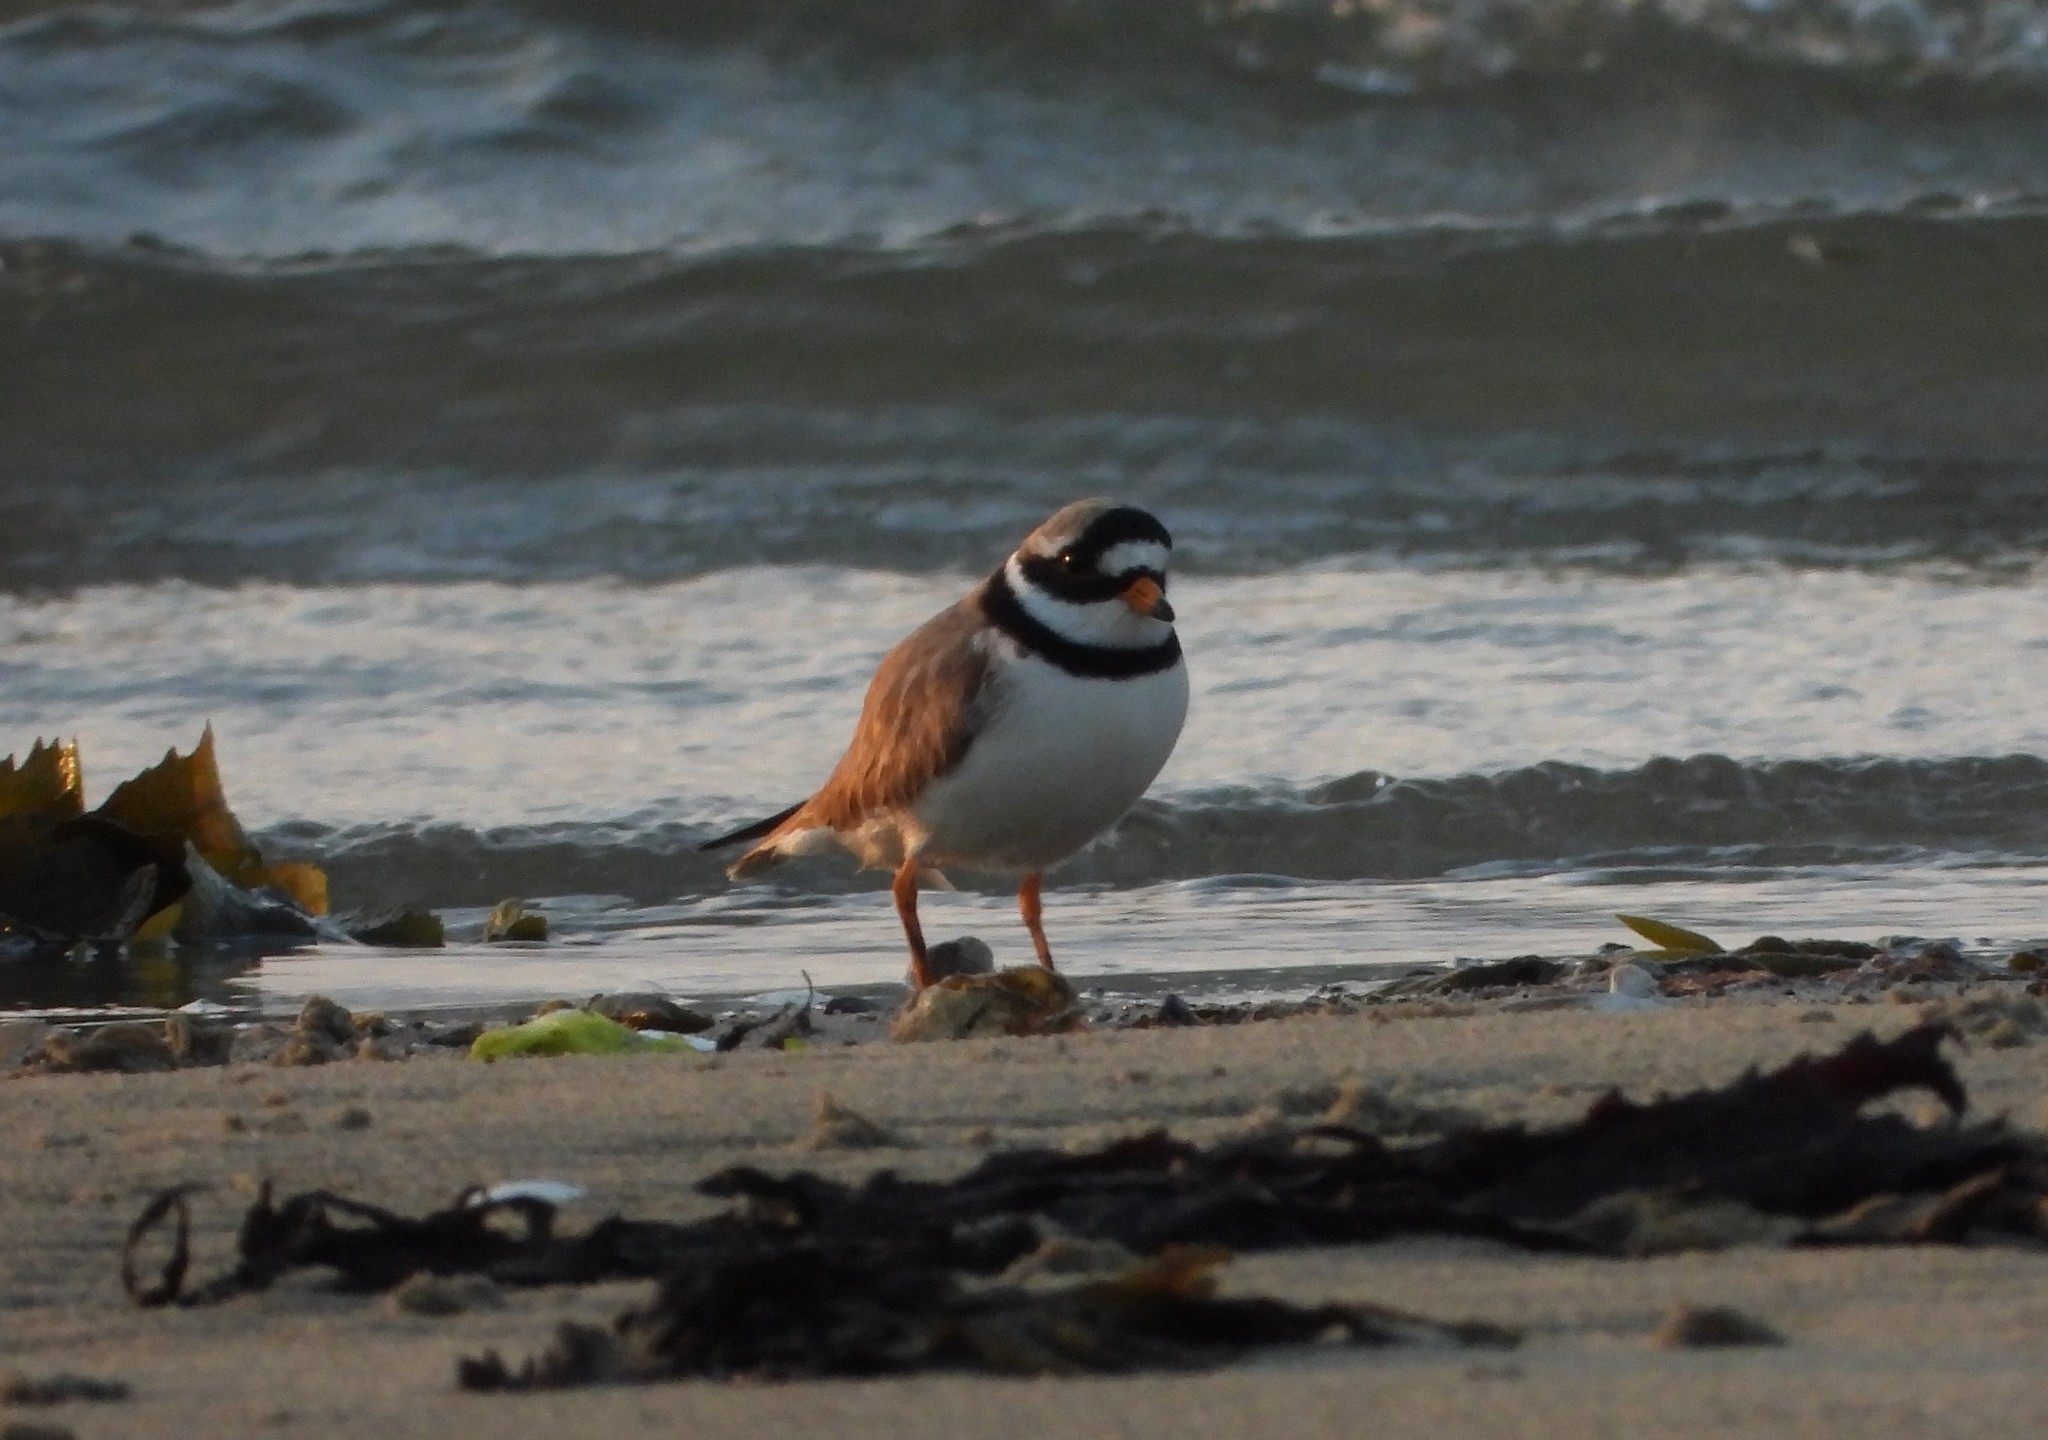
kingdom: Animalia
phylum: Chordata
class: Aves
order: Charadriiformes
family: Charadriidae
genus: Charadrius
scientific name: Charadrius hiaticula
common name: Common ringed plover
